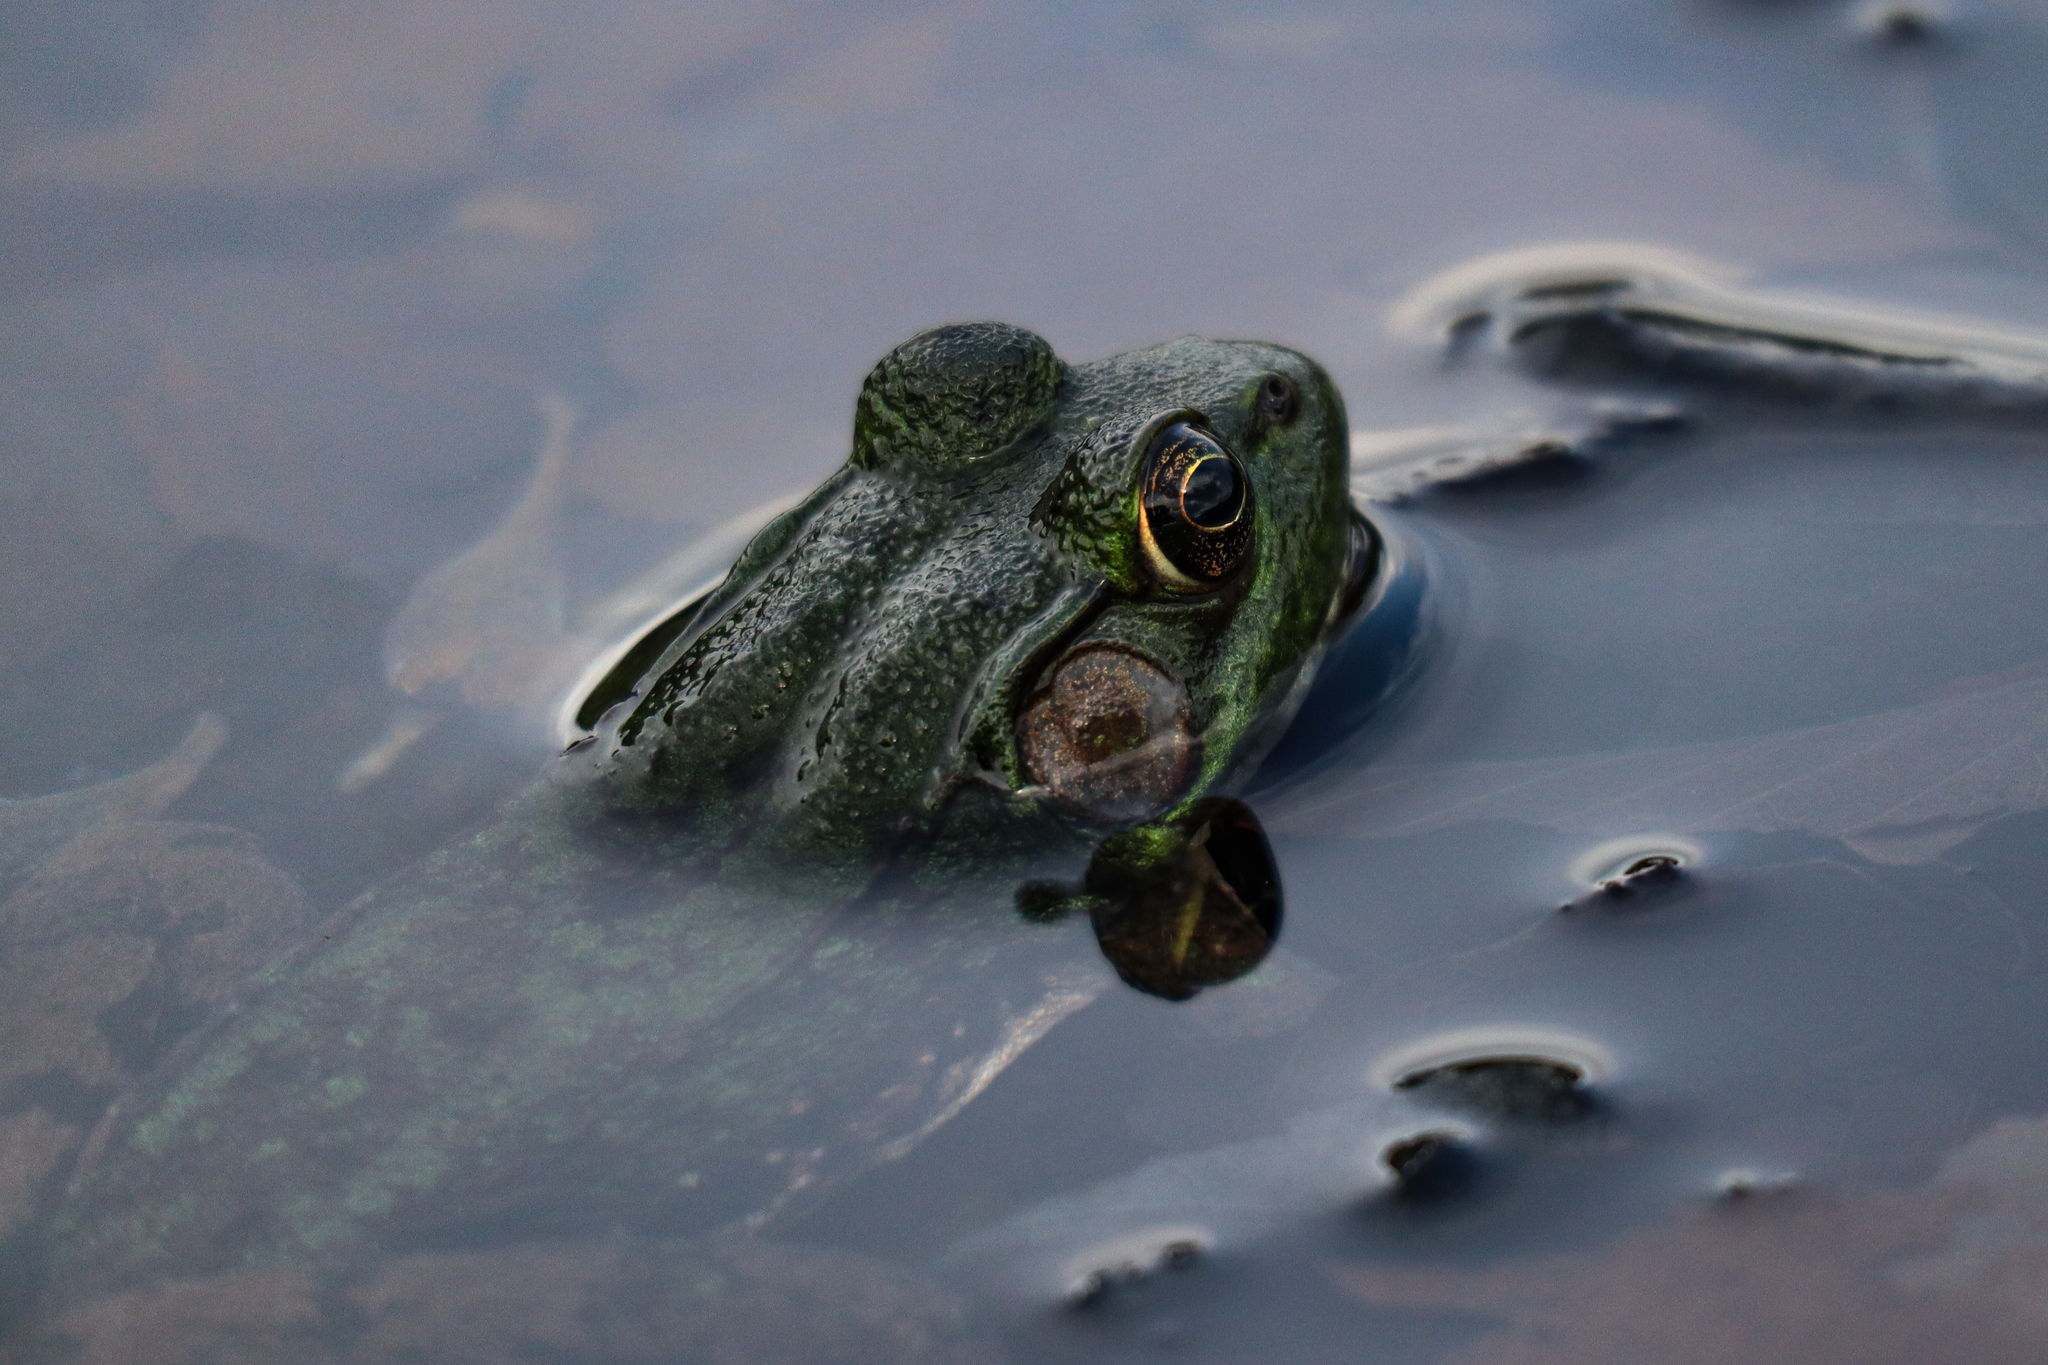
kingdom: Animalia
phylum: Chordata
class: Amphibia
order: Anura
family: Ranidae
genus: Lithobates
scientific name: Lithobates clamitans
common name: Green frog
